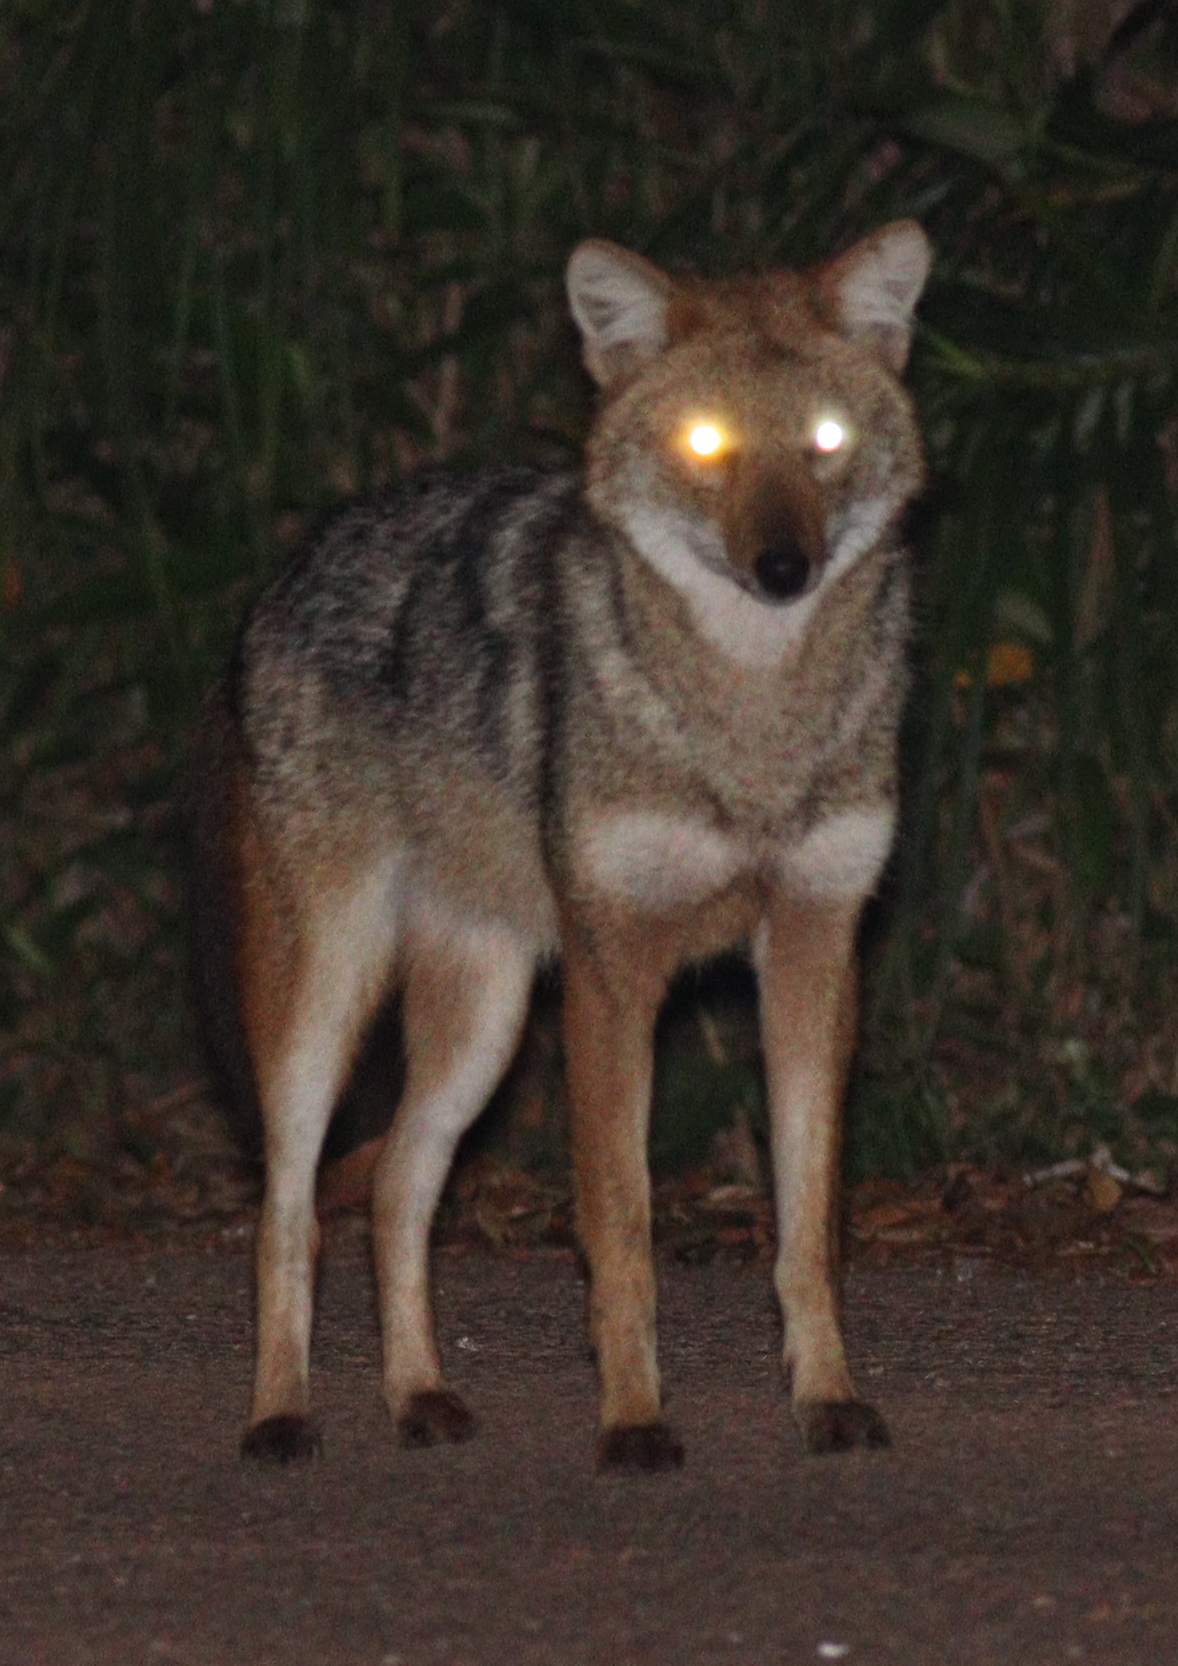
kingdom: Animalia
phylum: Chordata
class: Mammalia
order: Carnivora
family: Canidae
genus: Canis
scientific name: Canis aureus
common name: Golden jackal
